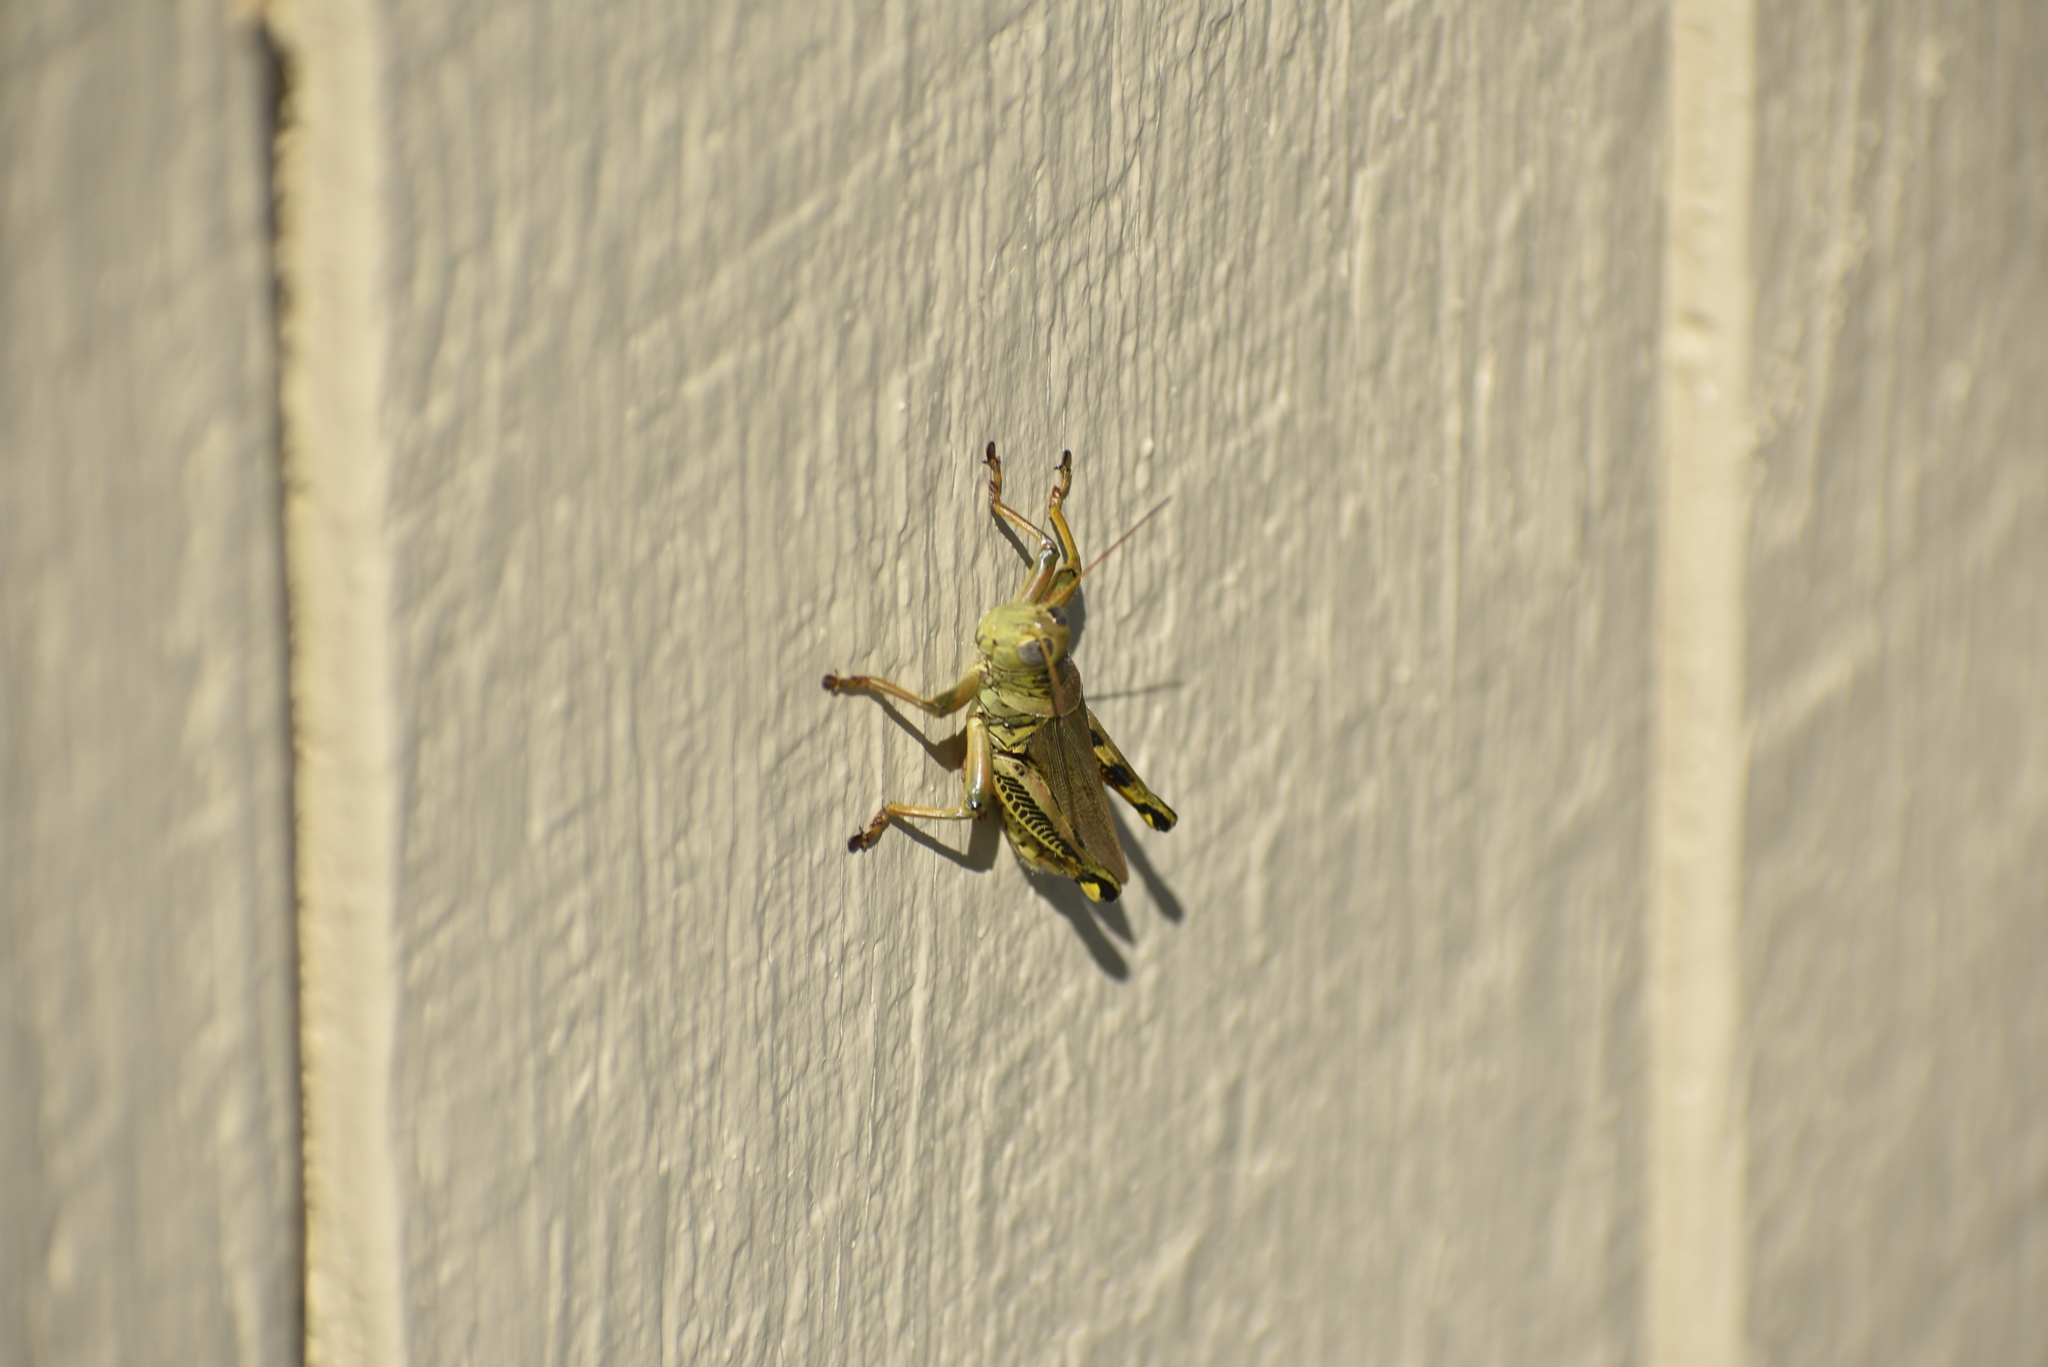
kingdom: Animalia
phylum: Arthropoda
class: Insecta
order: Orthoptera
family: Acrididae
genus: Melanoplus
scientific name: Melanoplus differentialis
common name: Differential grasshopper
